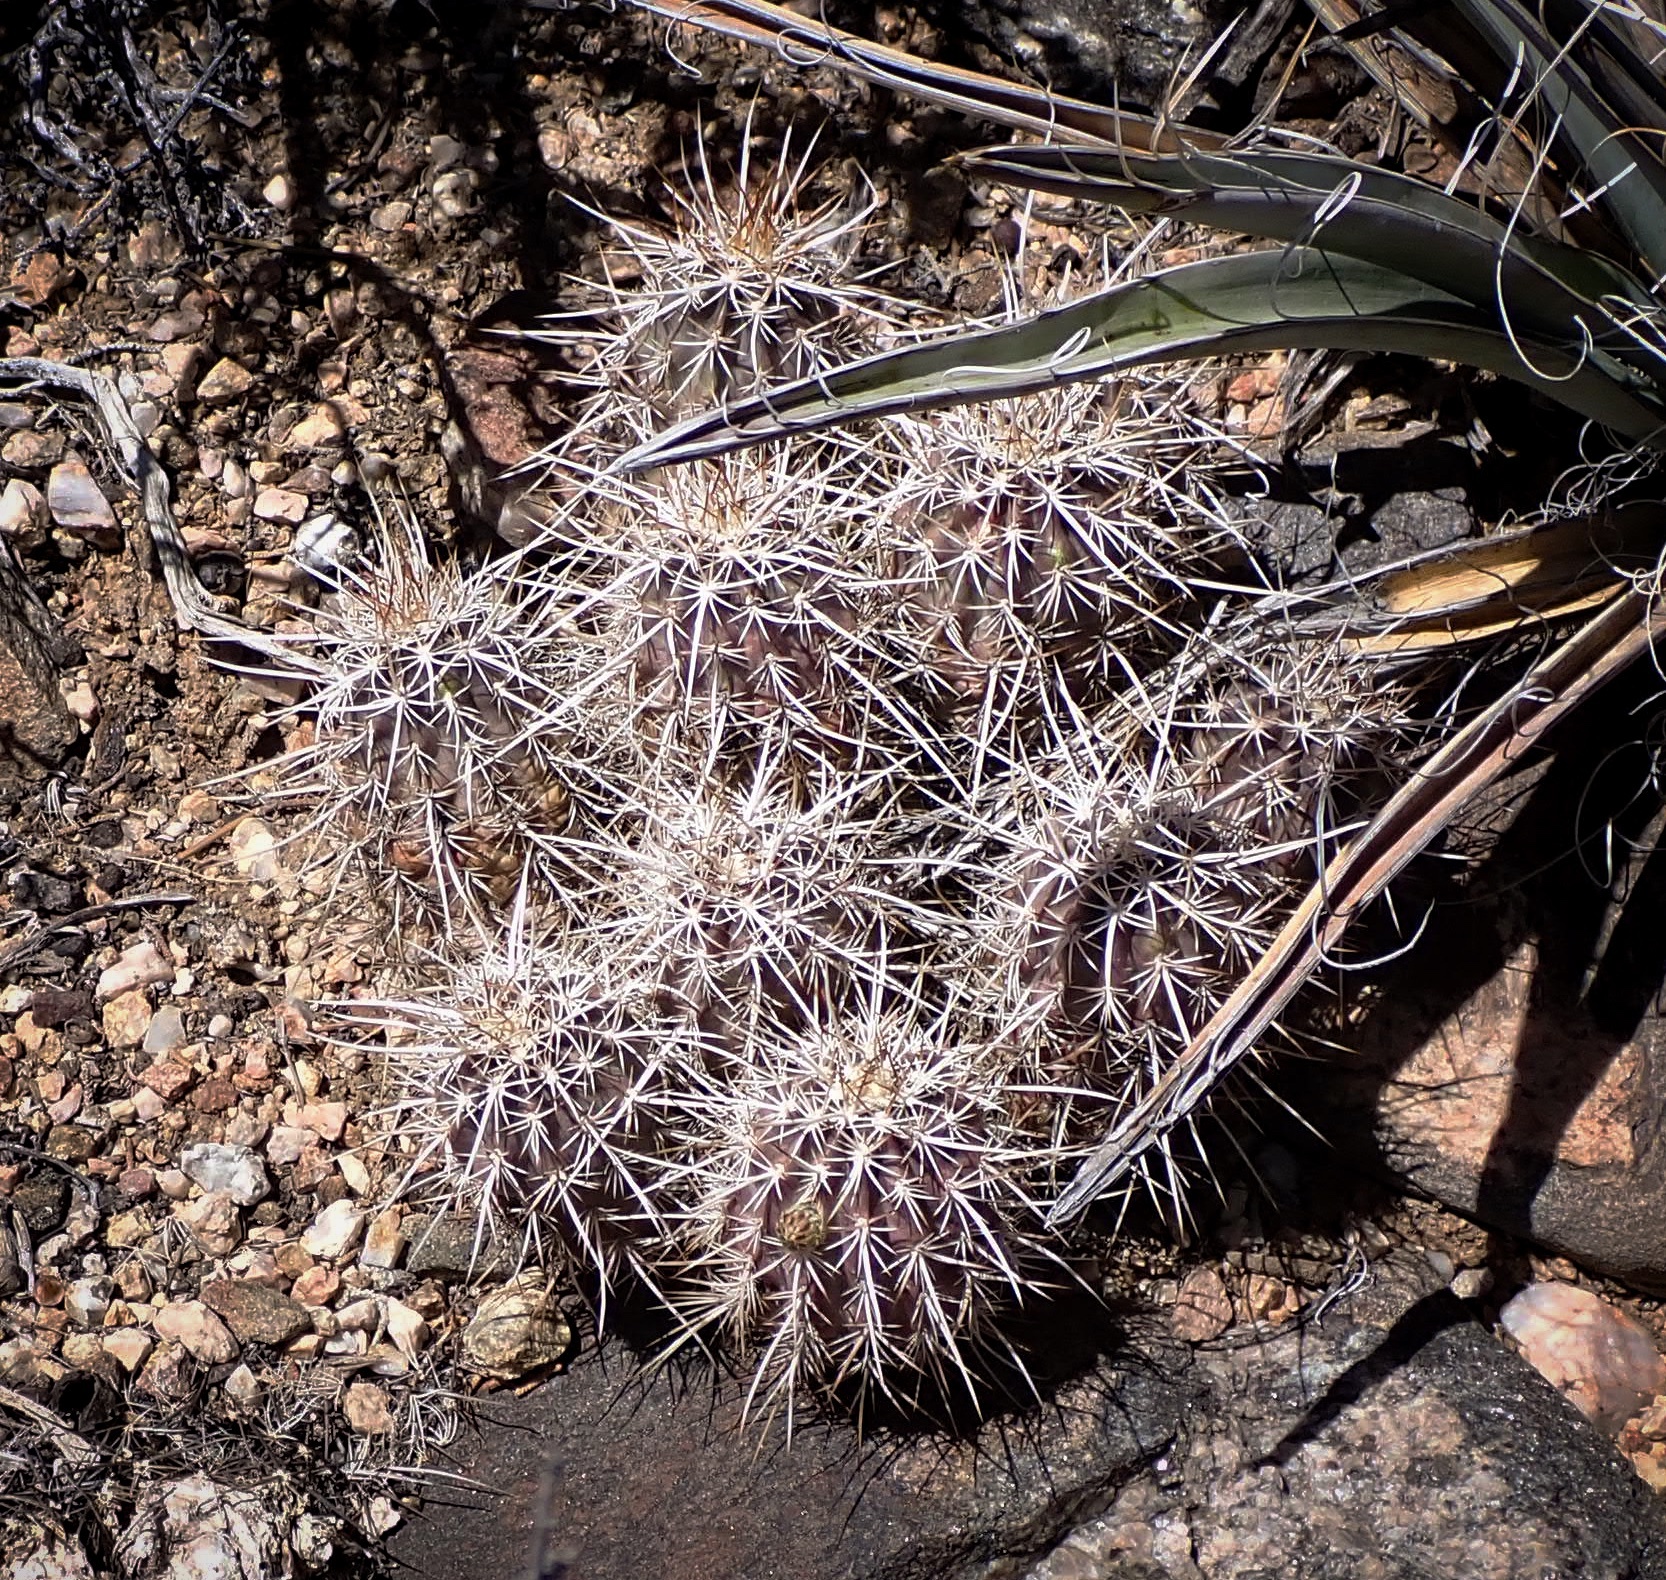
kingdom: Plantae
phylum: Tracheophyta
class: Magnoliopsida
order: Caryophyllales
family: Cactaceae
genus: Echinocereus
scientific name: Echinocereus engelmannii
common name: Engelmann's hedgehog cactus
